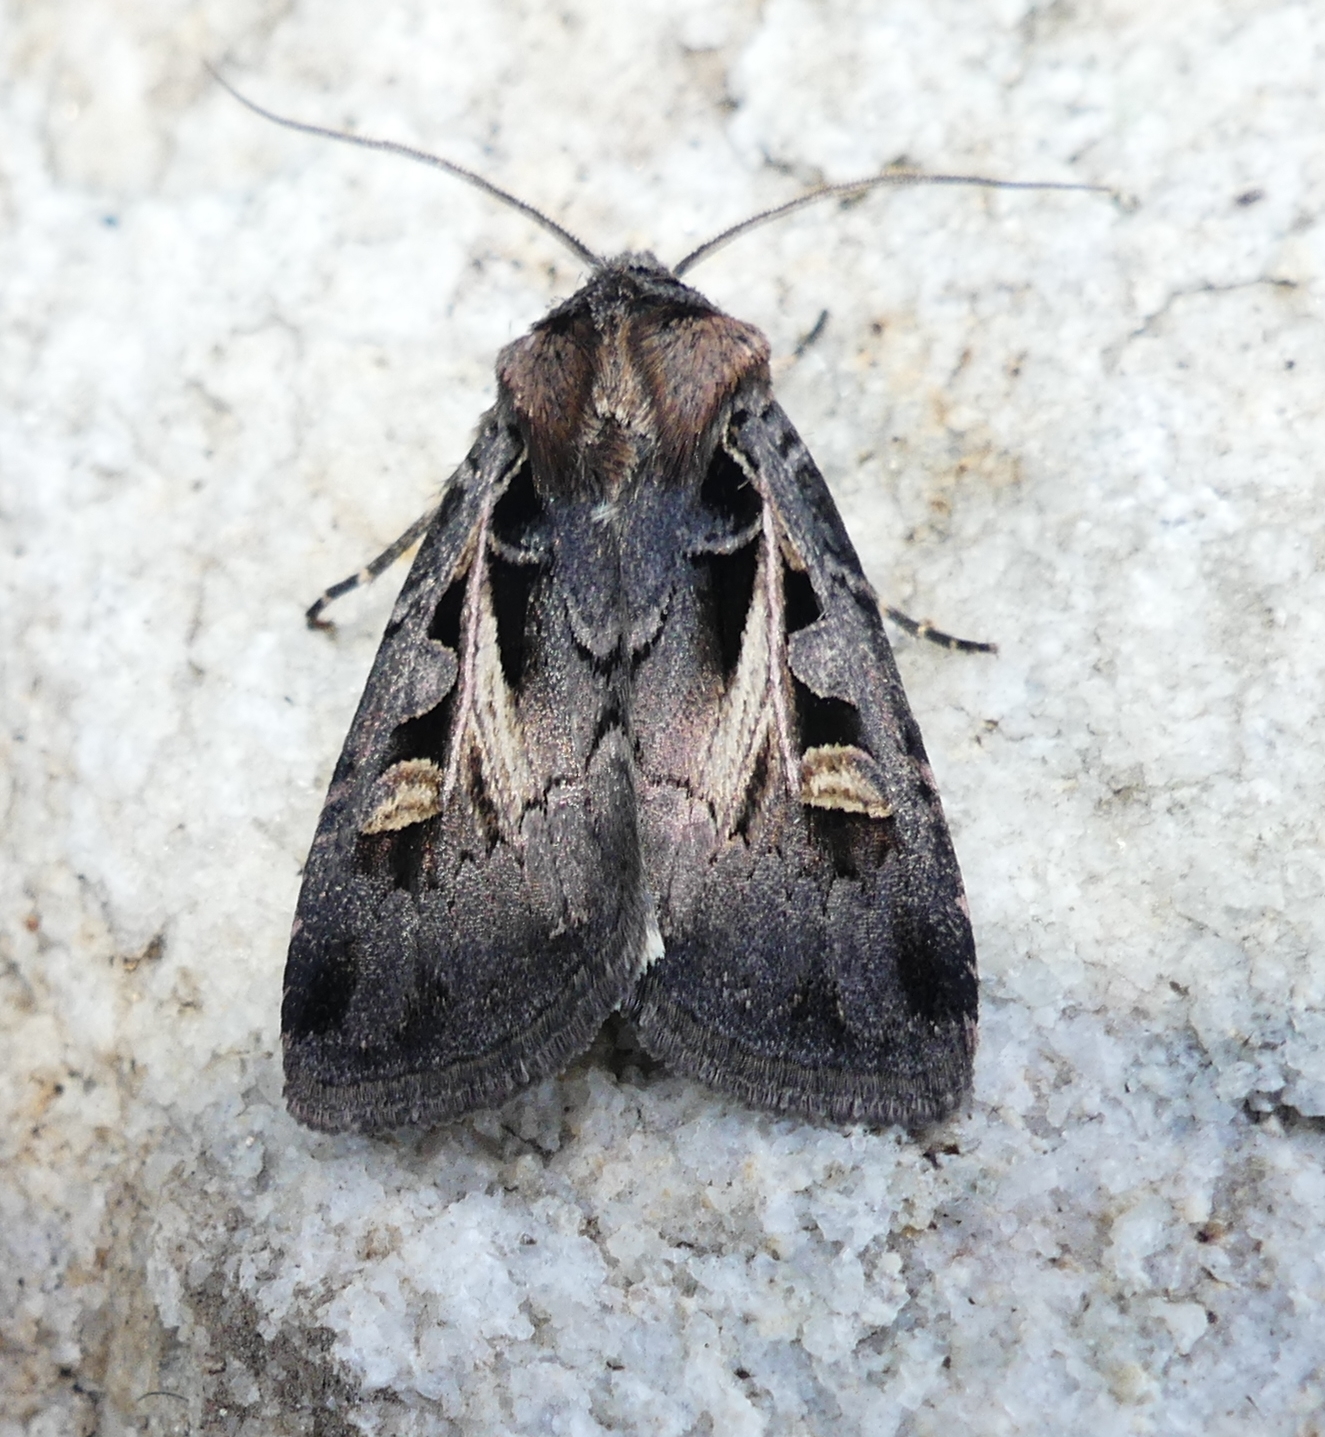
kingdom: Animalia
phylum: Arthropoda
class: Insecta
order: Lepidoptera
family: Noctuidae
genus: Feltia
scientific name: Feltia herilis
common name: Master's dart
